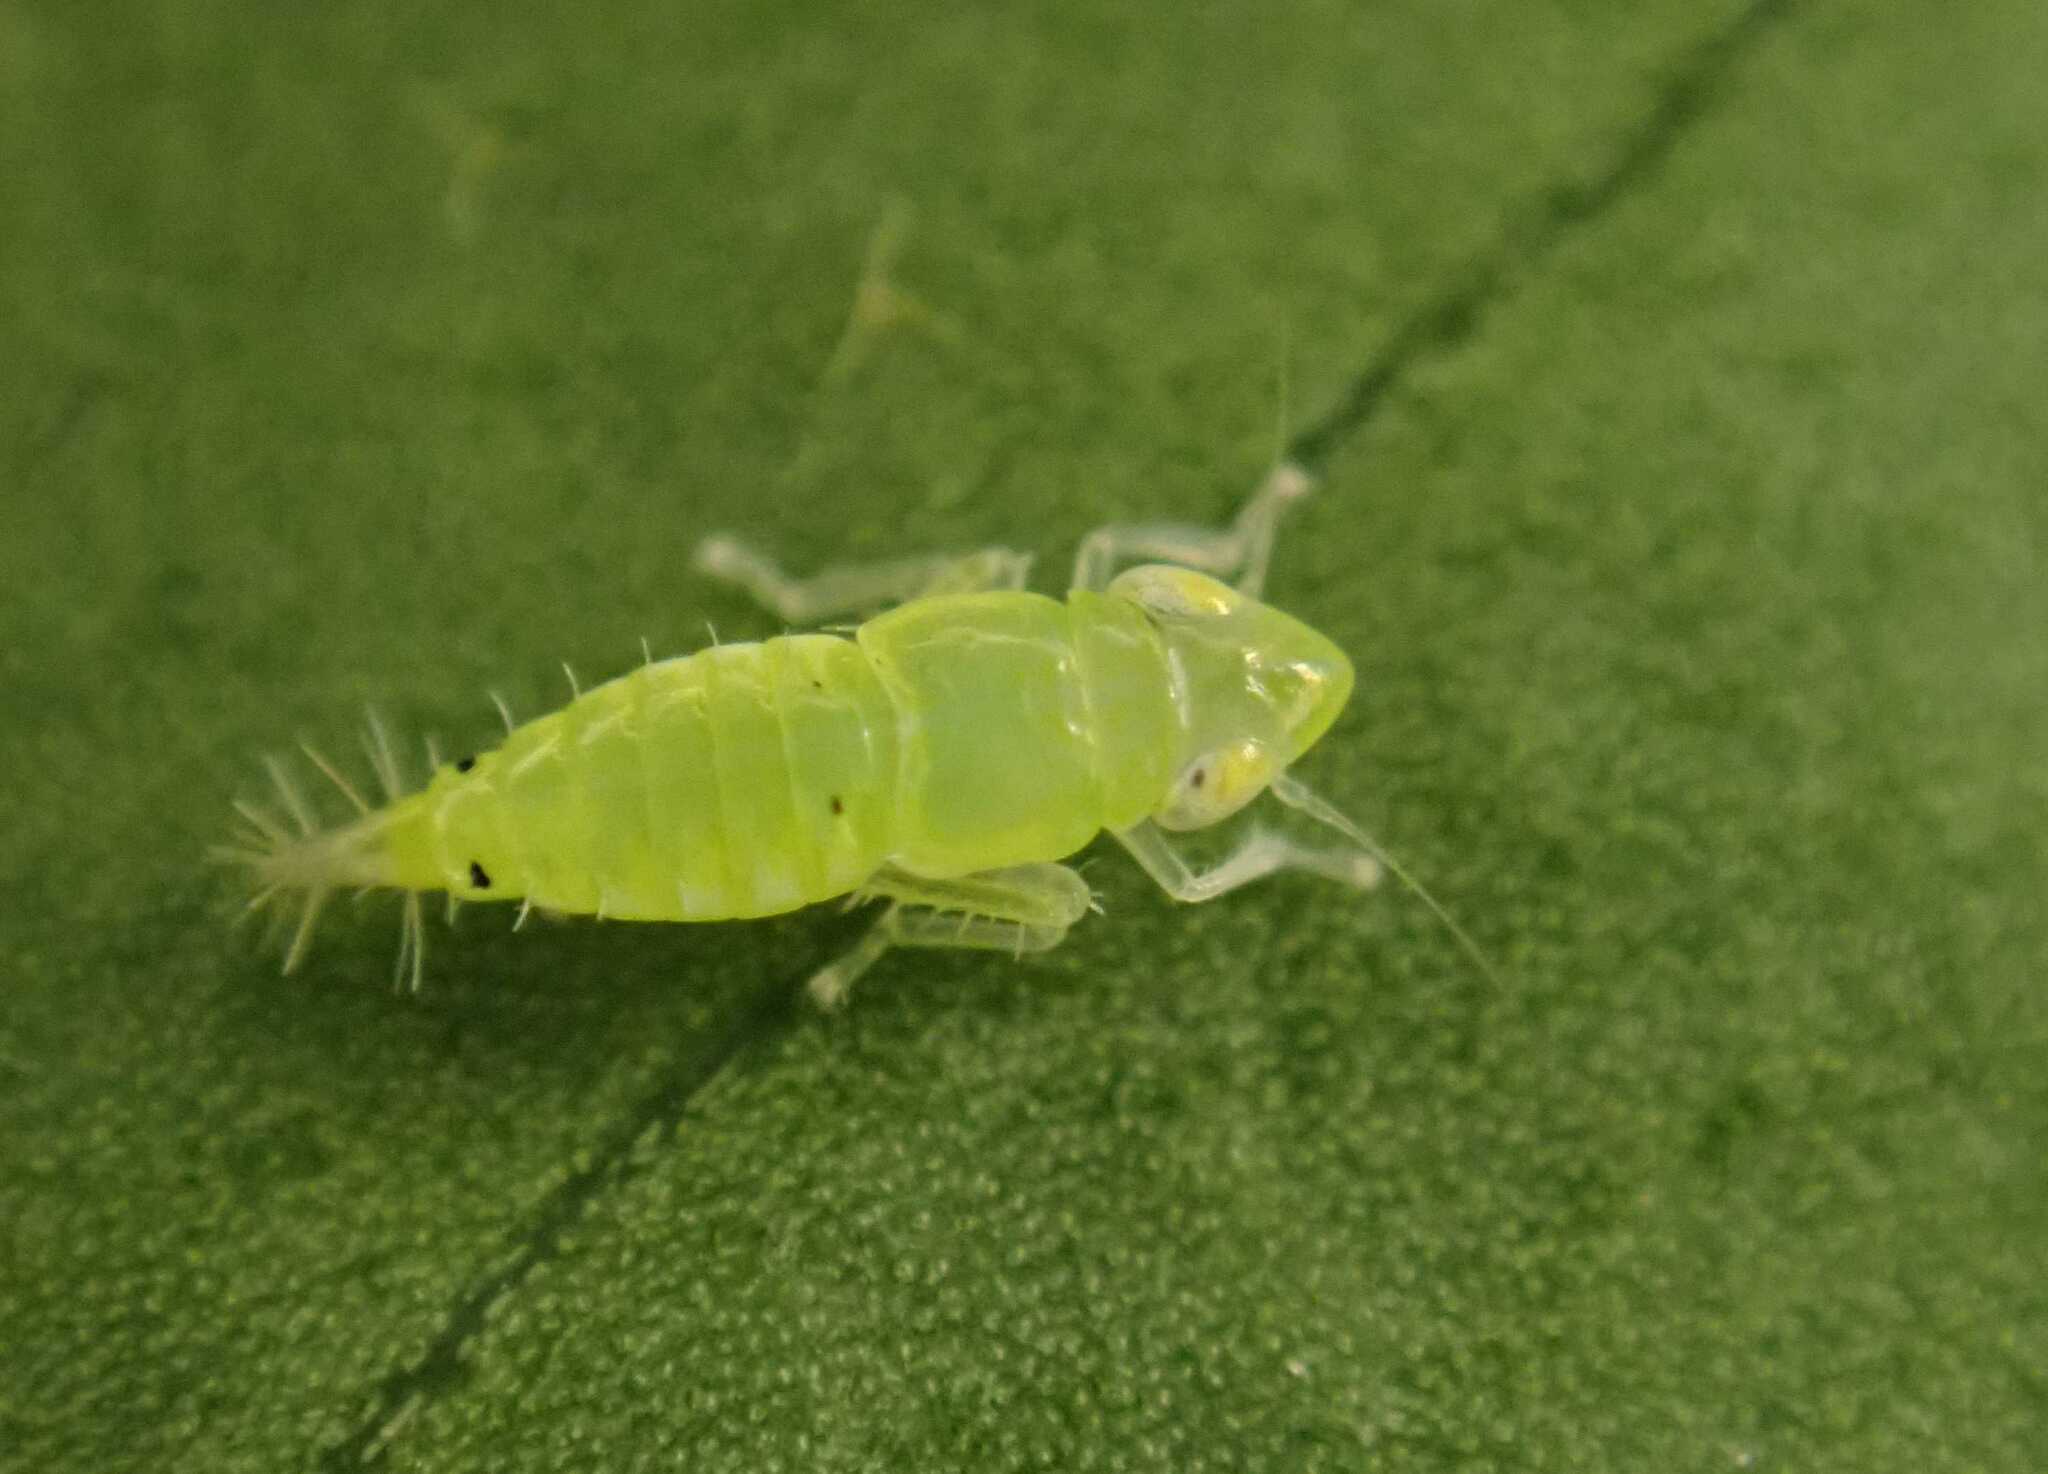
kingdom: Animalia
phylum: Arthropoda
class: Insecta
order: Hemiptera
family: Cicadellidae
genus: Synophropsis
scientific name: Synophropsis lauri
